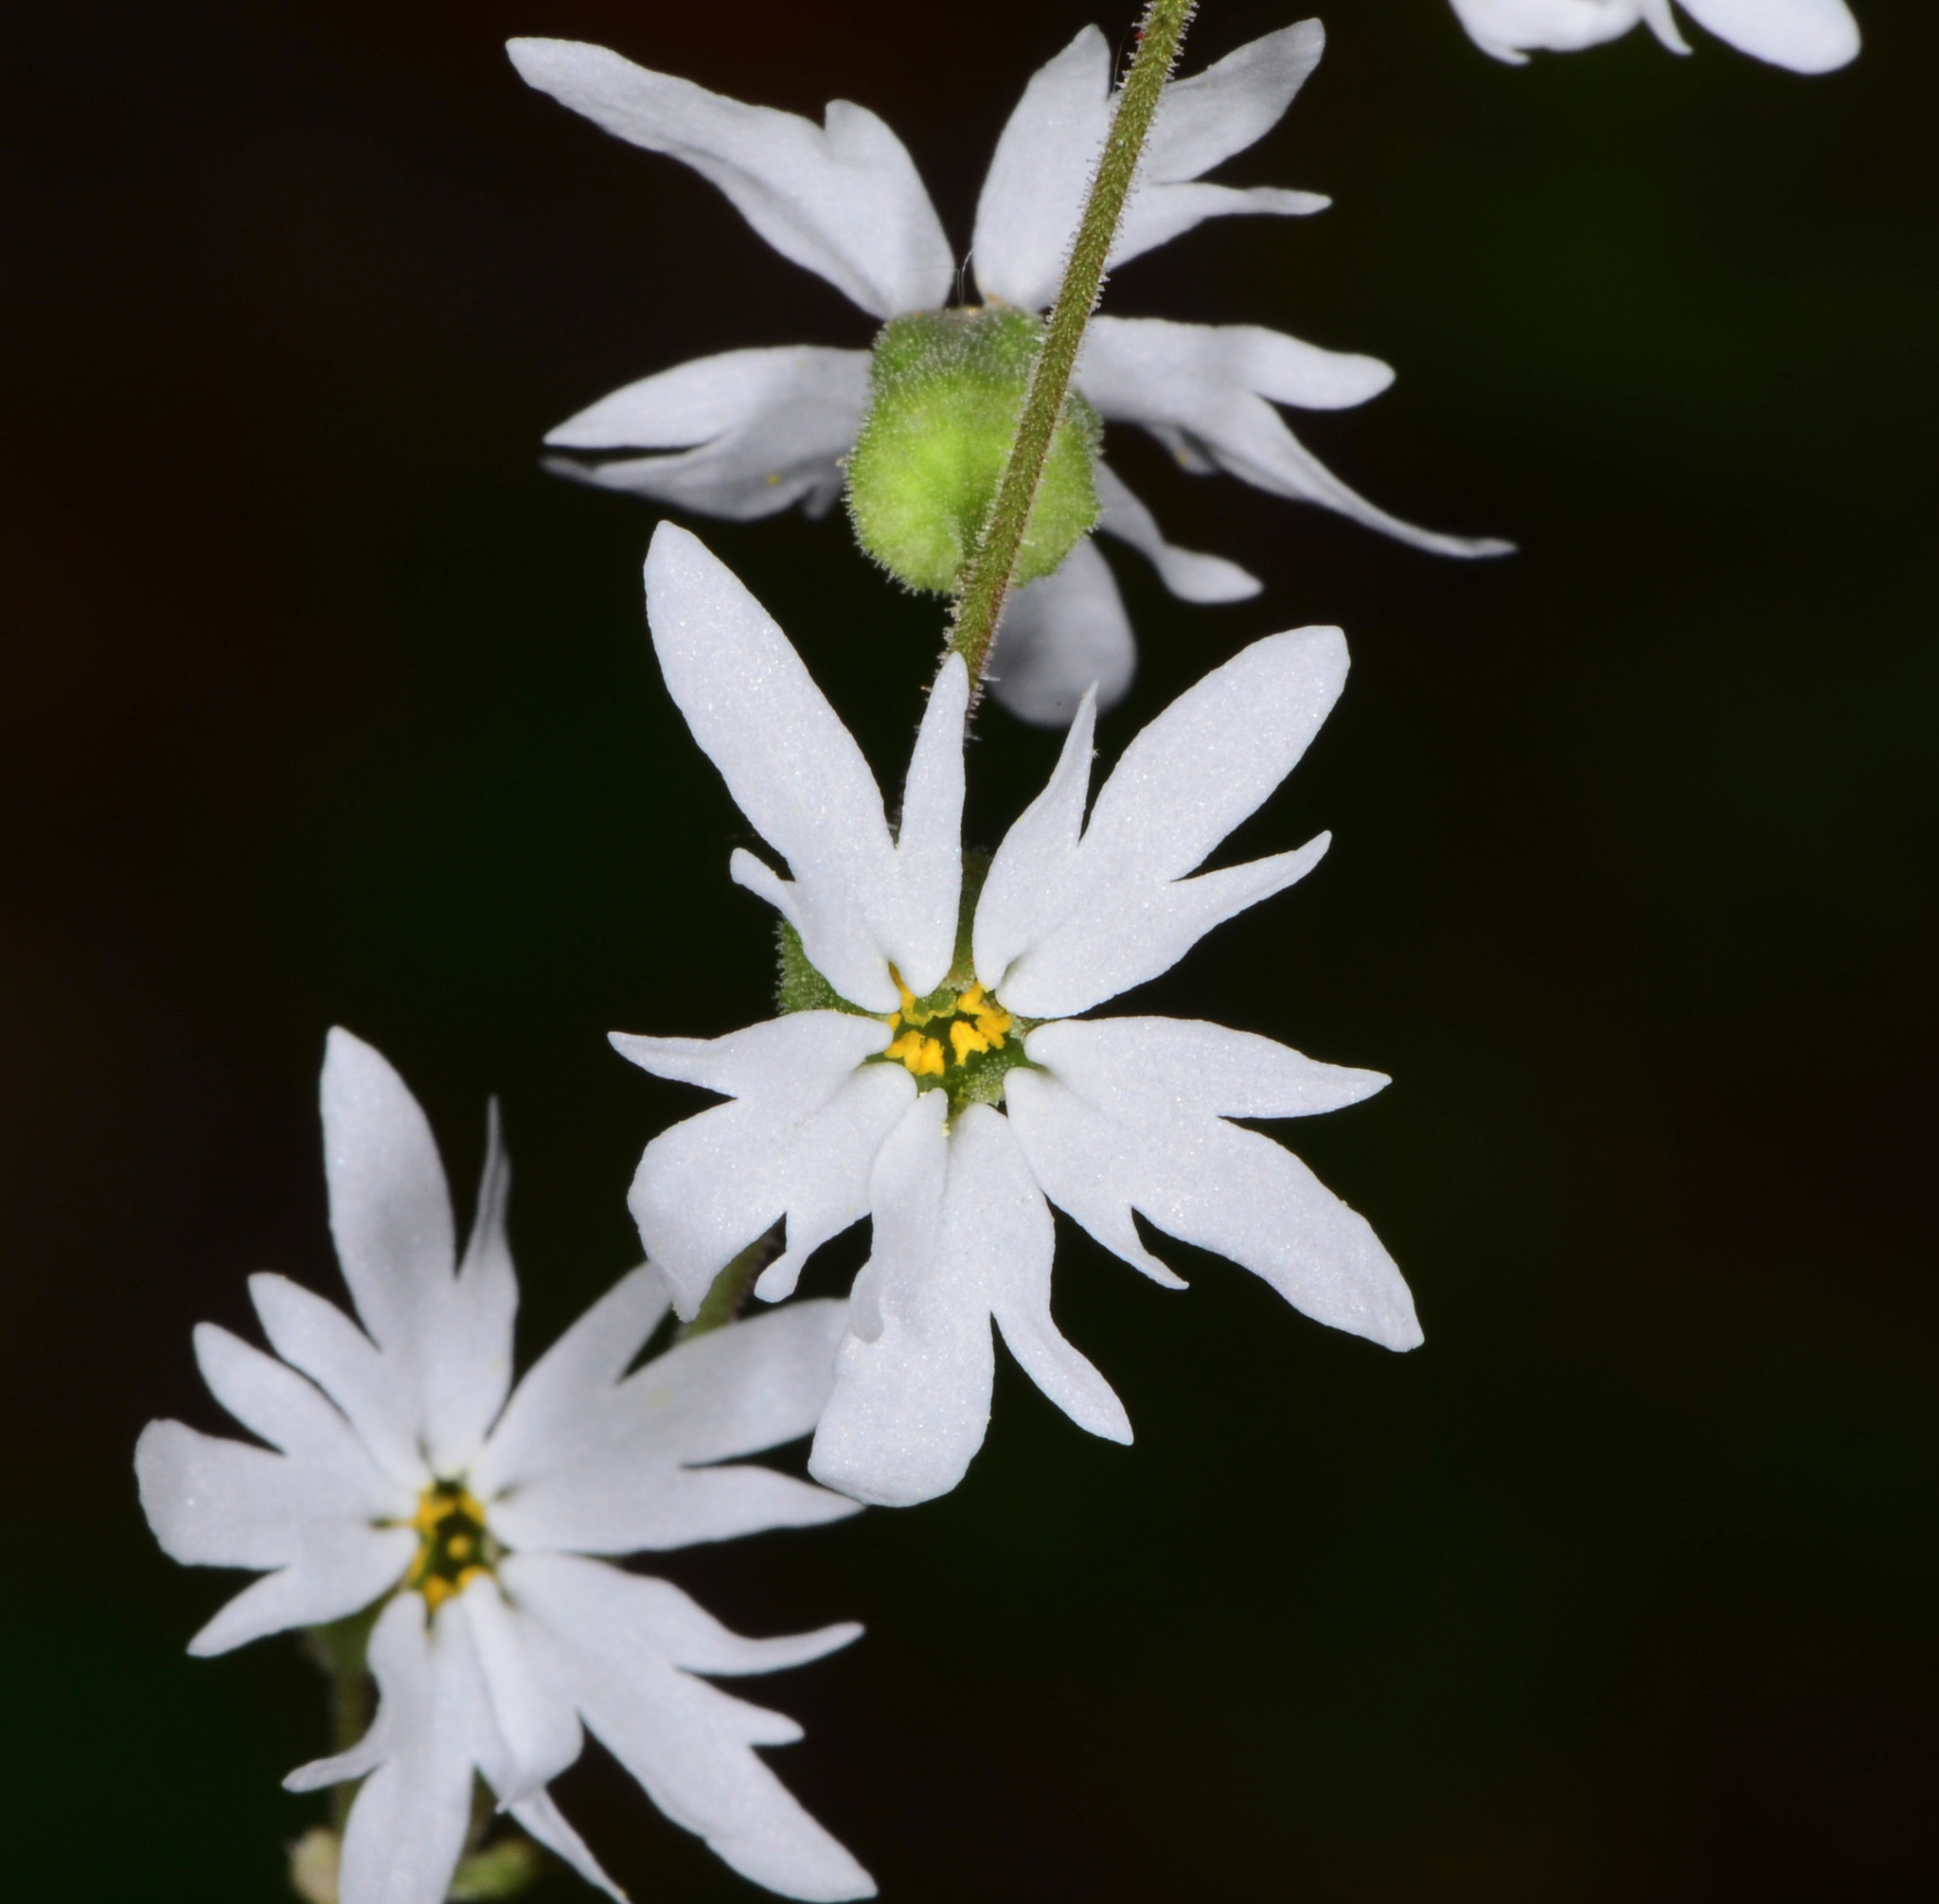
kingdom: Plantae
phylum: Tracheophyta
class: Magnoliopsida
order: Saxifragales
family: Saxifragaceae
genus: Lithophragma
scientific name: Lithophragma heterophyllum
